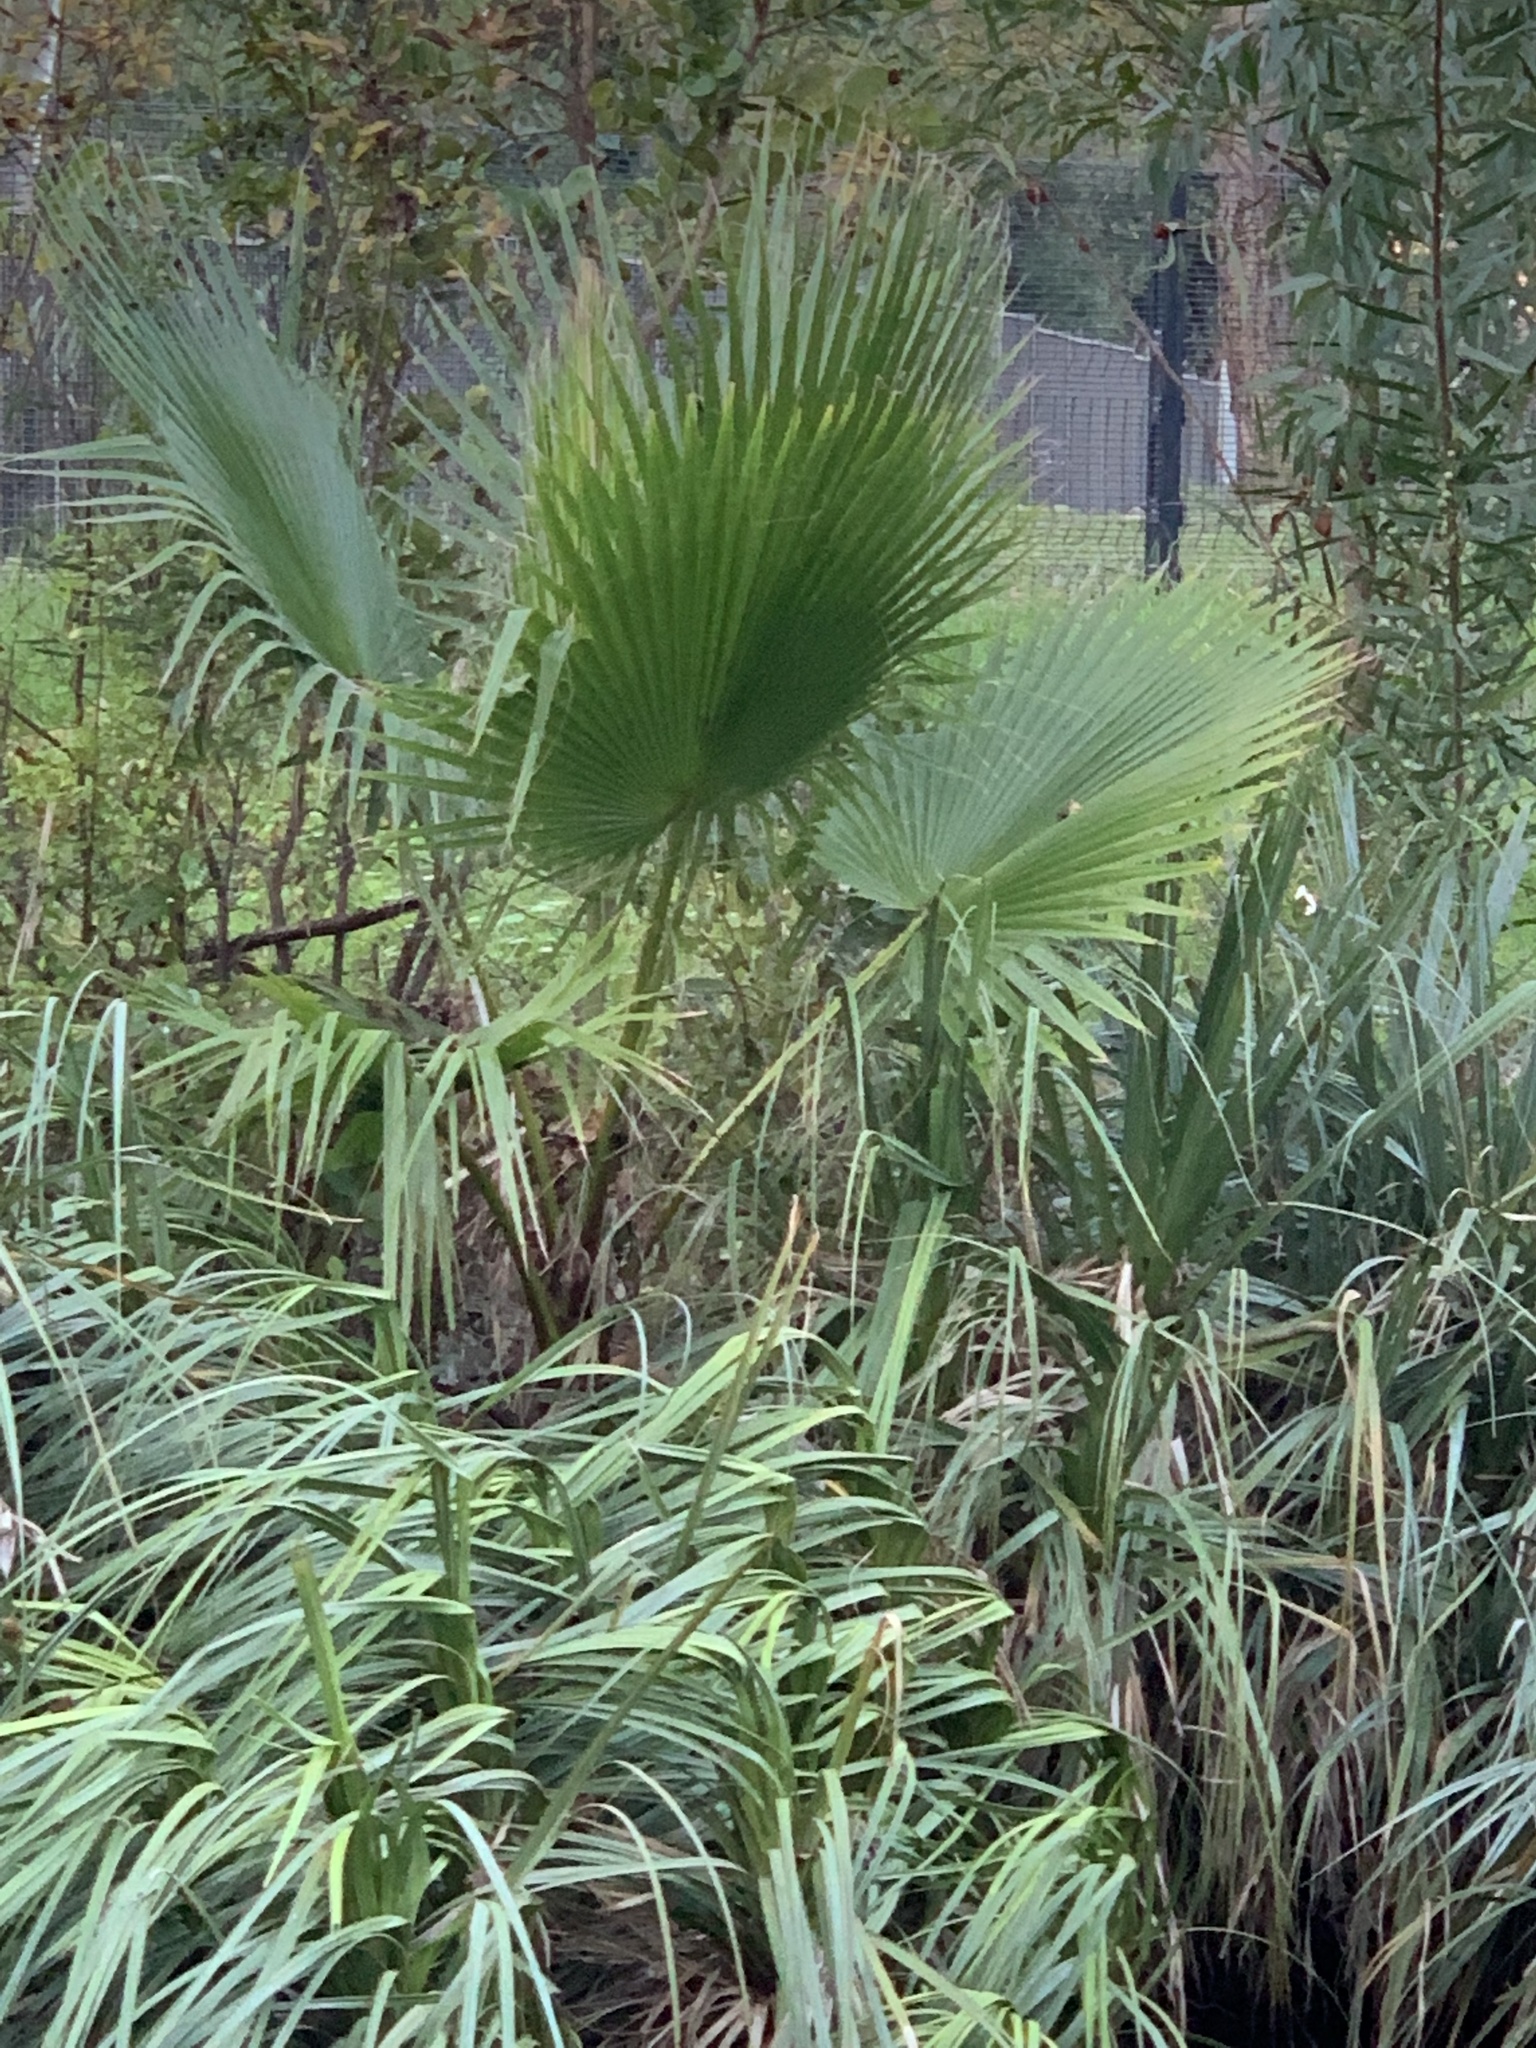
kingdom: Plantae
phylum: Tracheophyta
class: Liliopsida
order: Arecales
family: Arecaceae
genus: Washingtonia
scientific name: Washingtonia robusta
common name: Mexican fan palm
